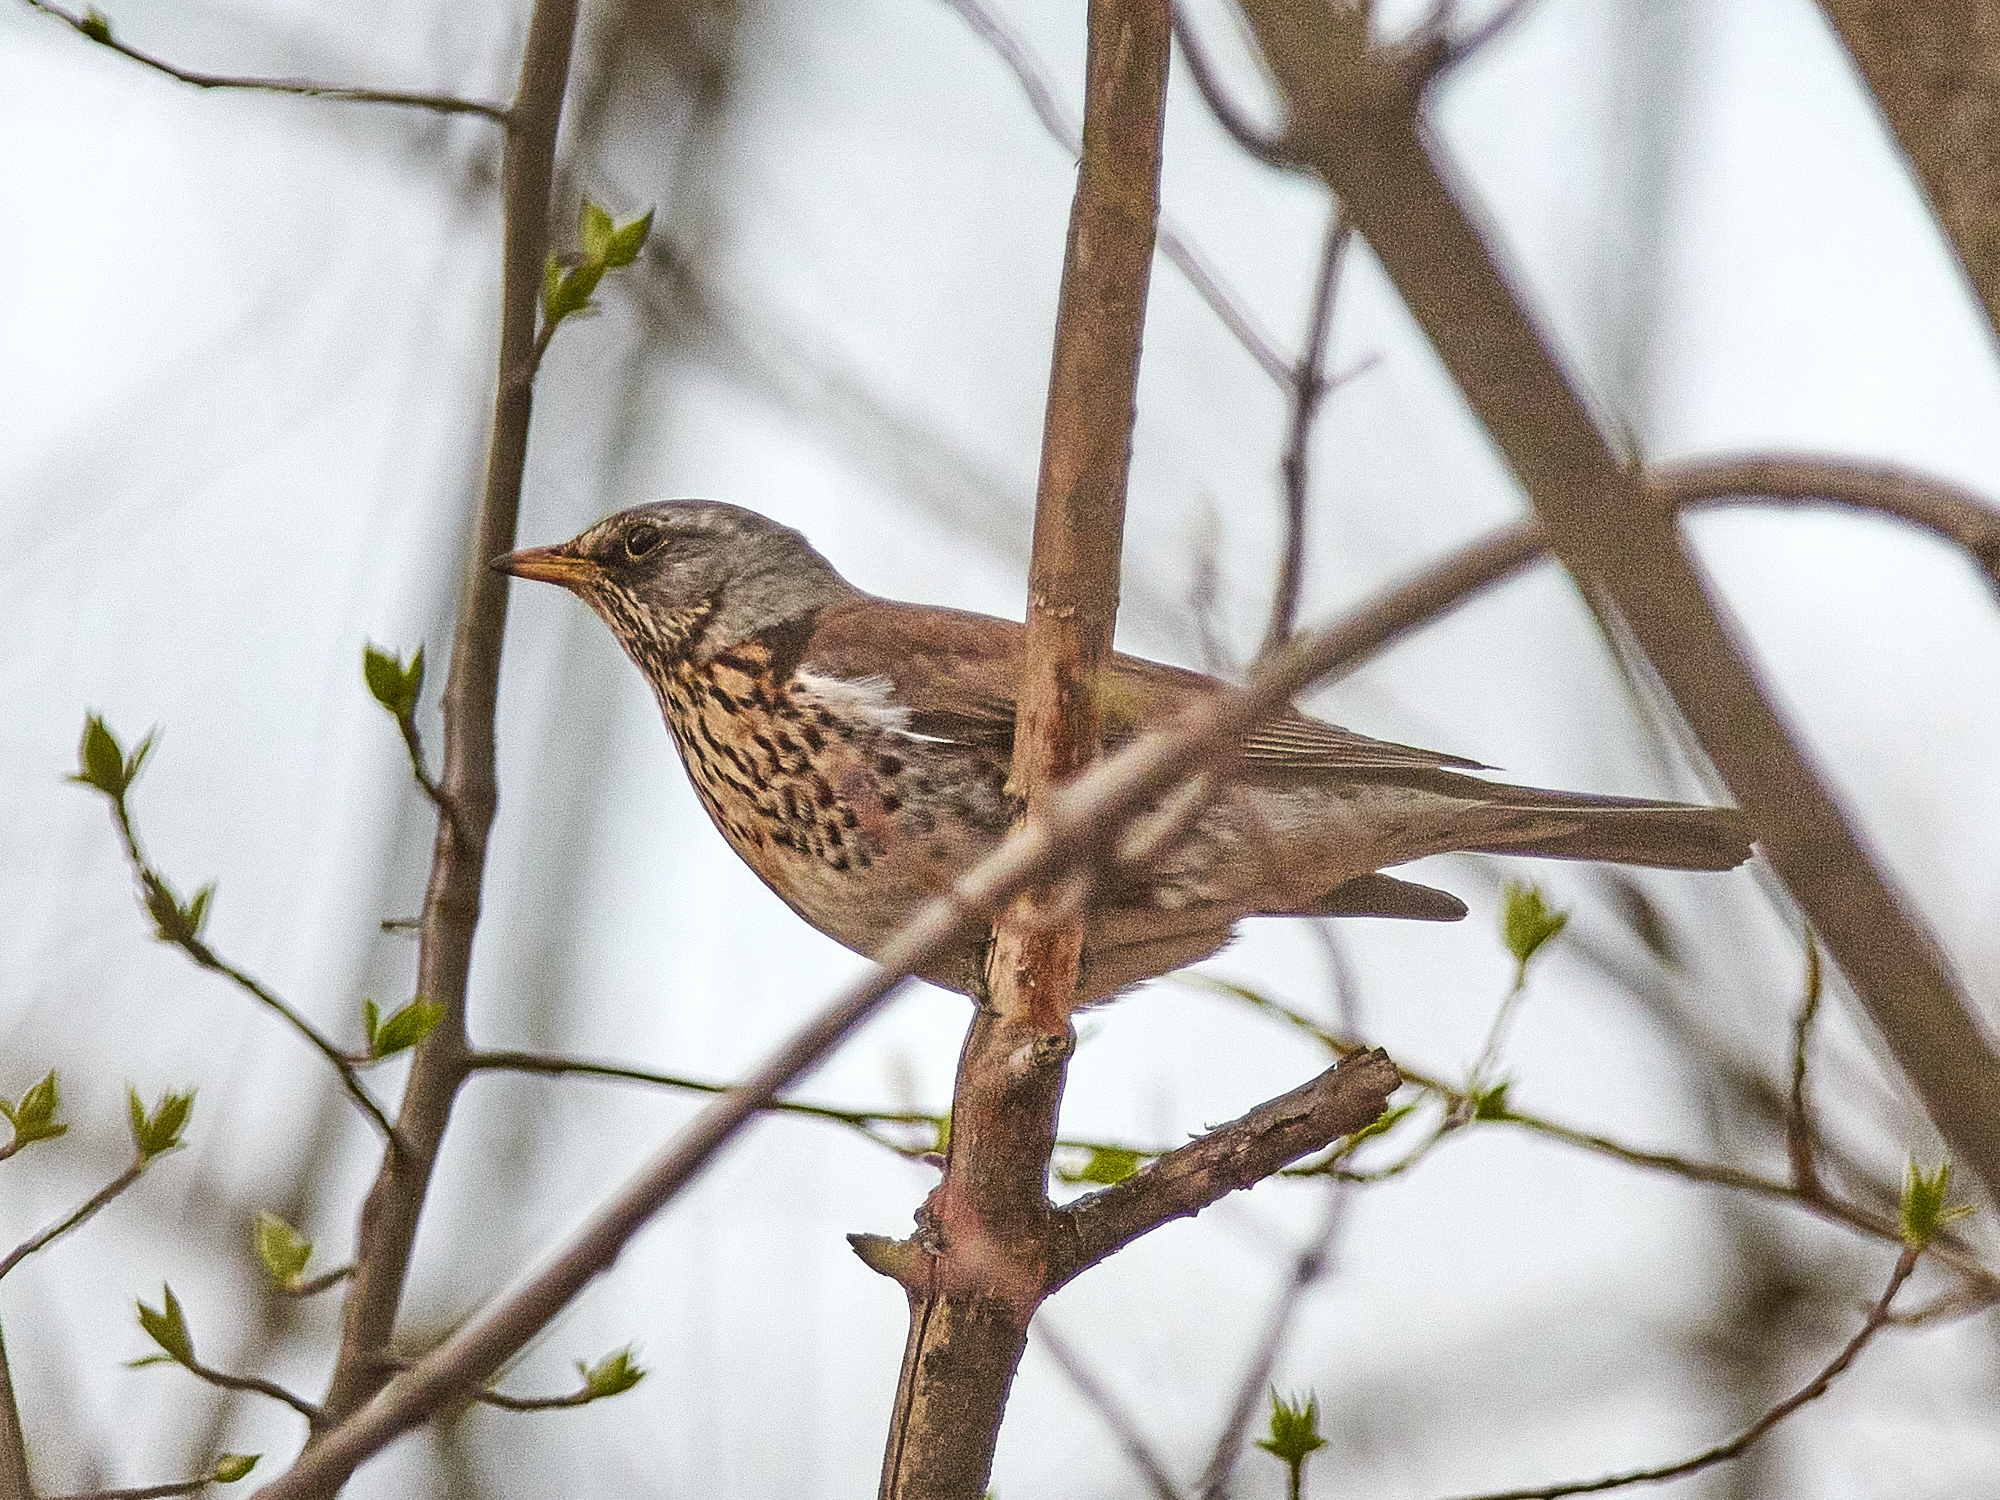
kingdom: Animalia
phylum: Chordata
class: Aves
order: Passeriformes
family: Turdidae
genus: Turdus
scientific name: Turdus pilaris
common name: Fieldfare
